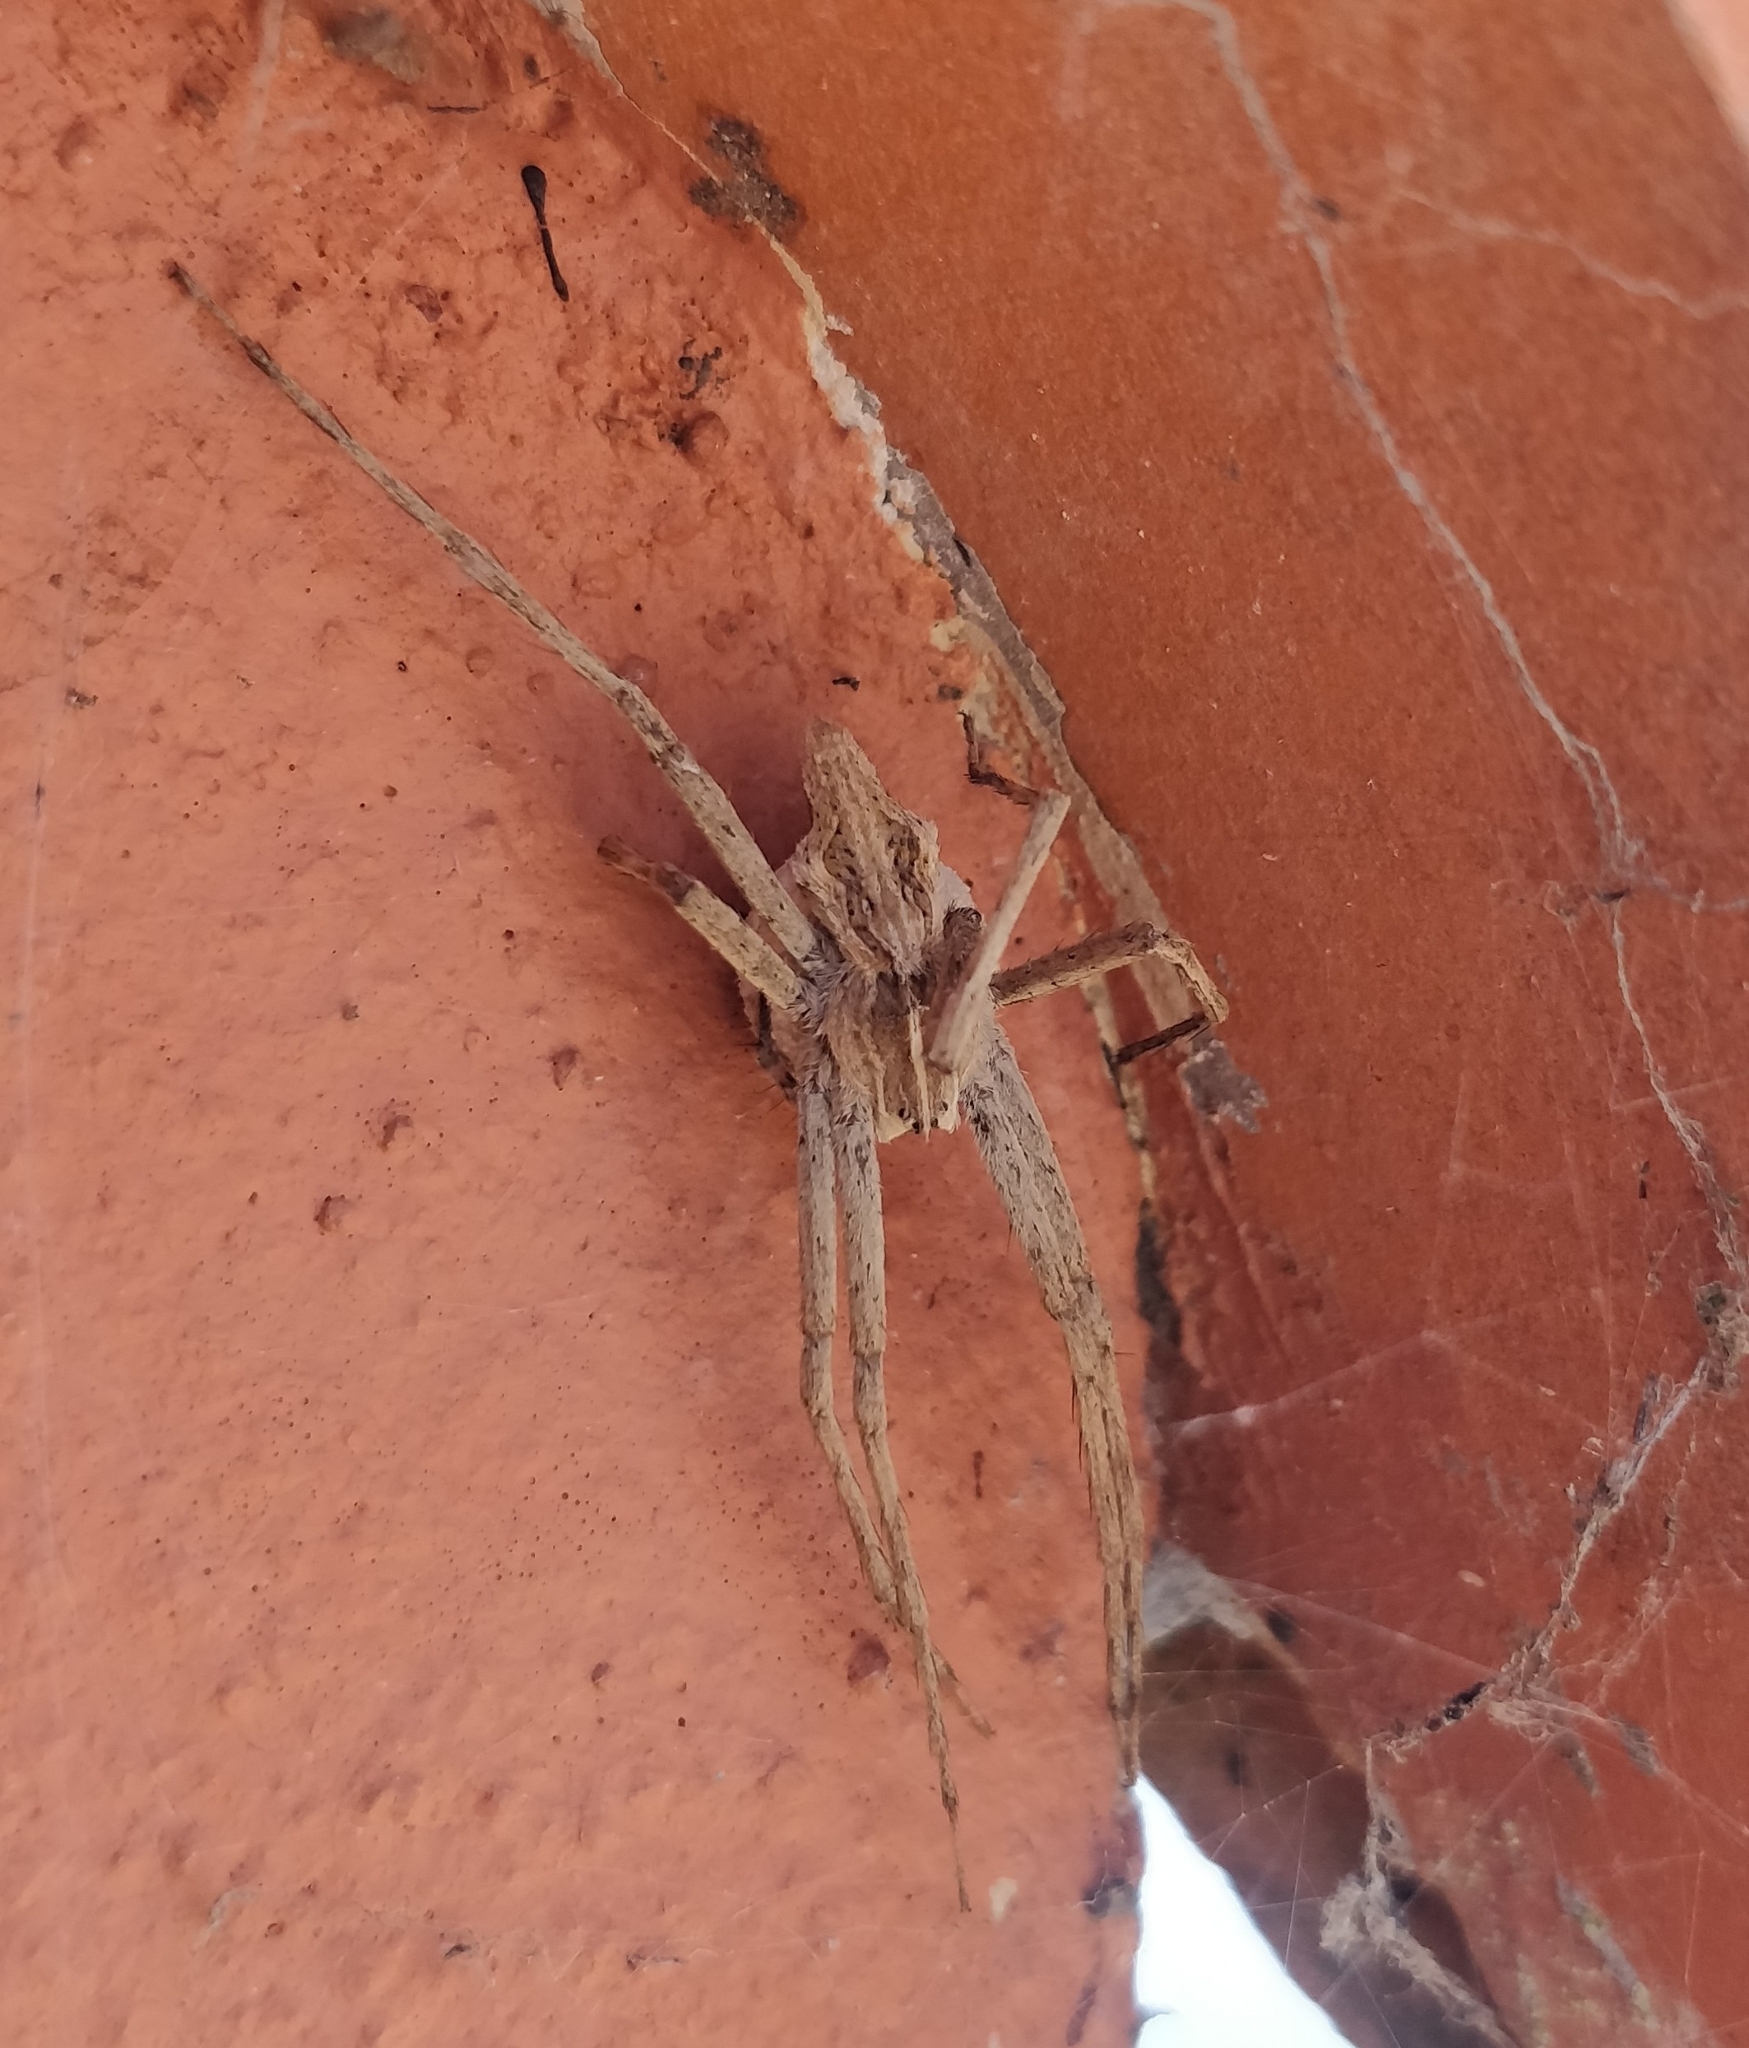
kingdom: Animalia
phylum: Arthropoda
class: Arachnida
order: Araneae
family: Pisauridae
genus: Cladycnis
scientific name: Cladycnis insignis
